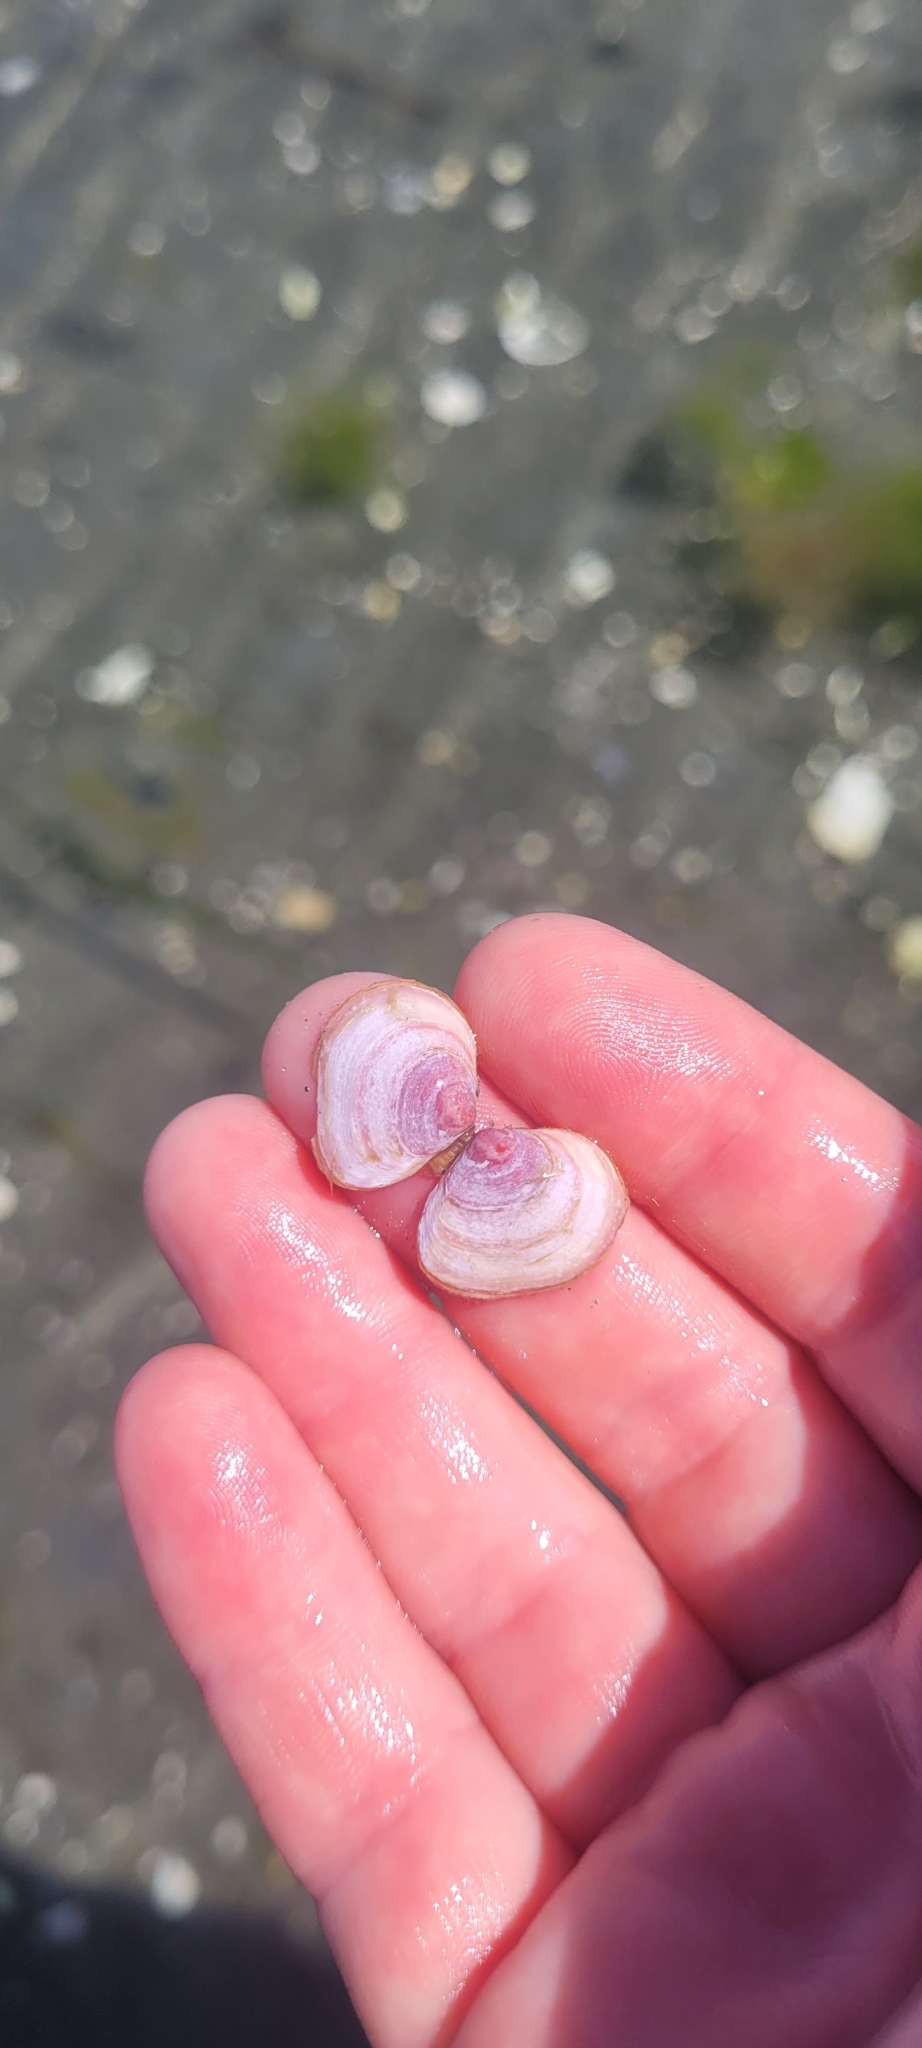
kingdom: Animalia
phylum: Mollusca
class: Bivalvia
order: Cardiida
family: Tellinidae
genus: Macoma
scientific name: Macoma balthica
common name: Baltic tellin
